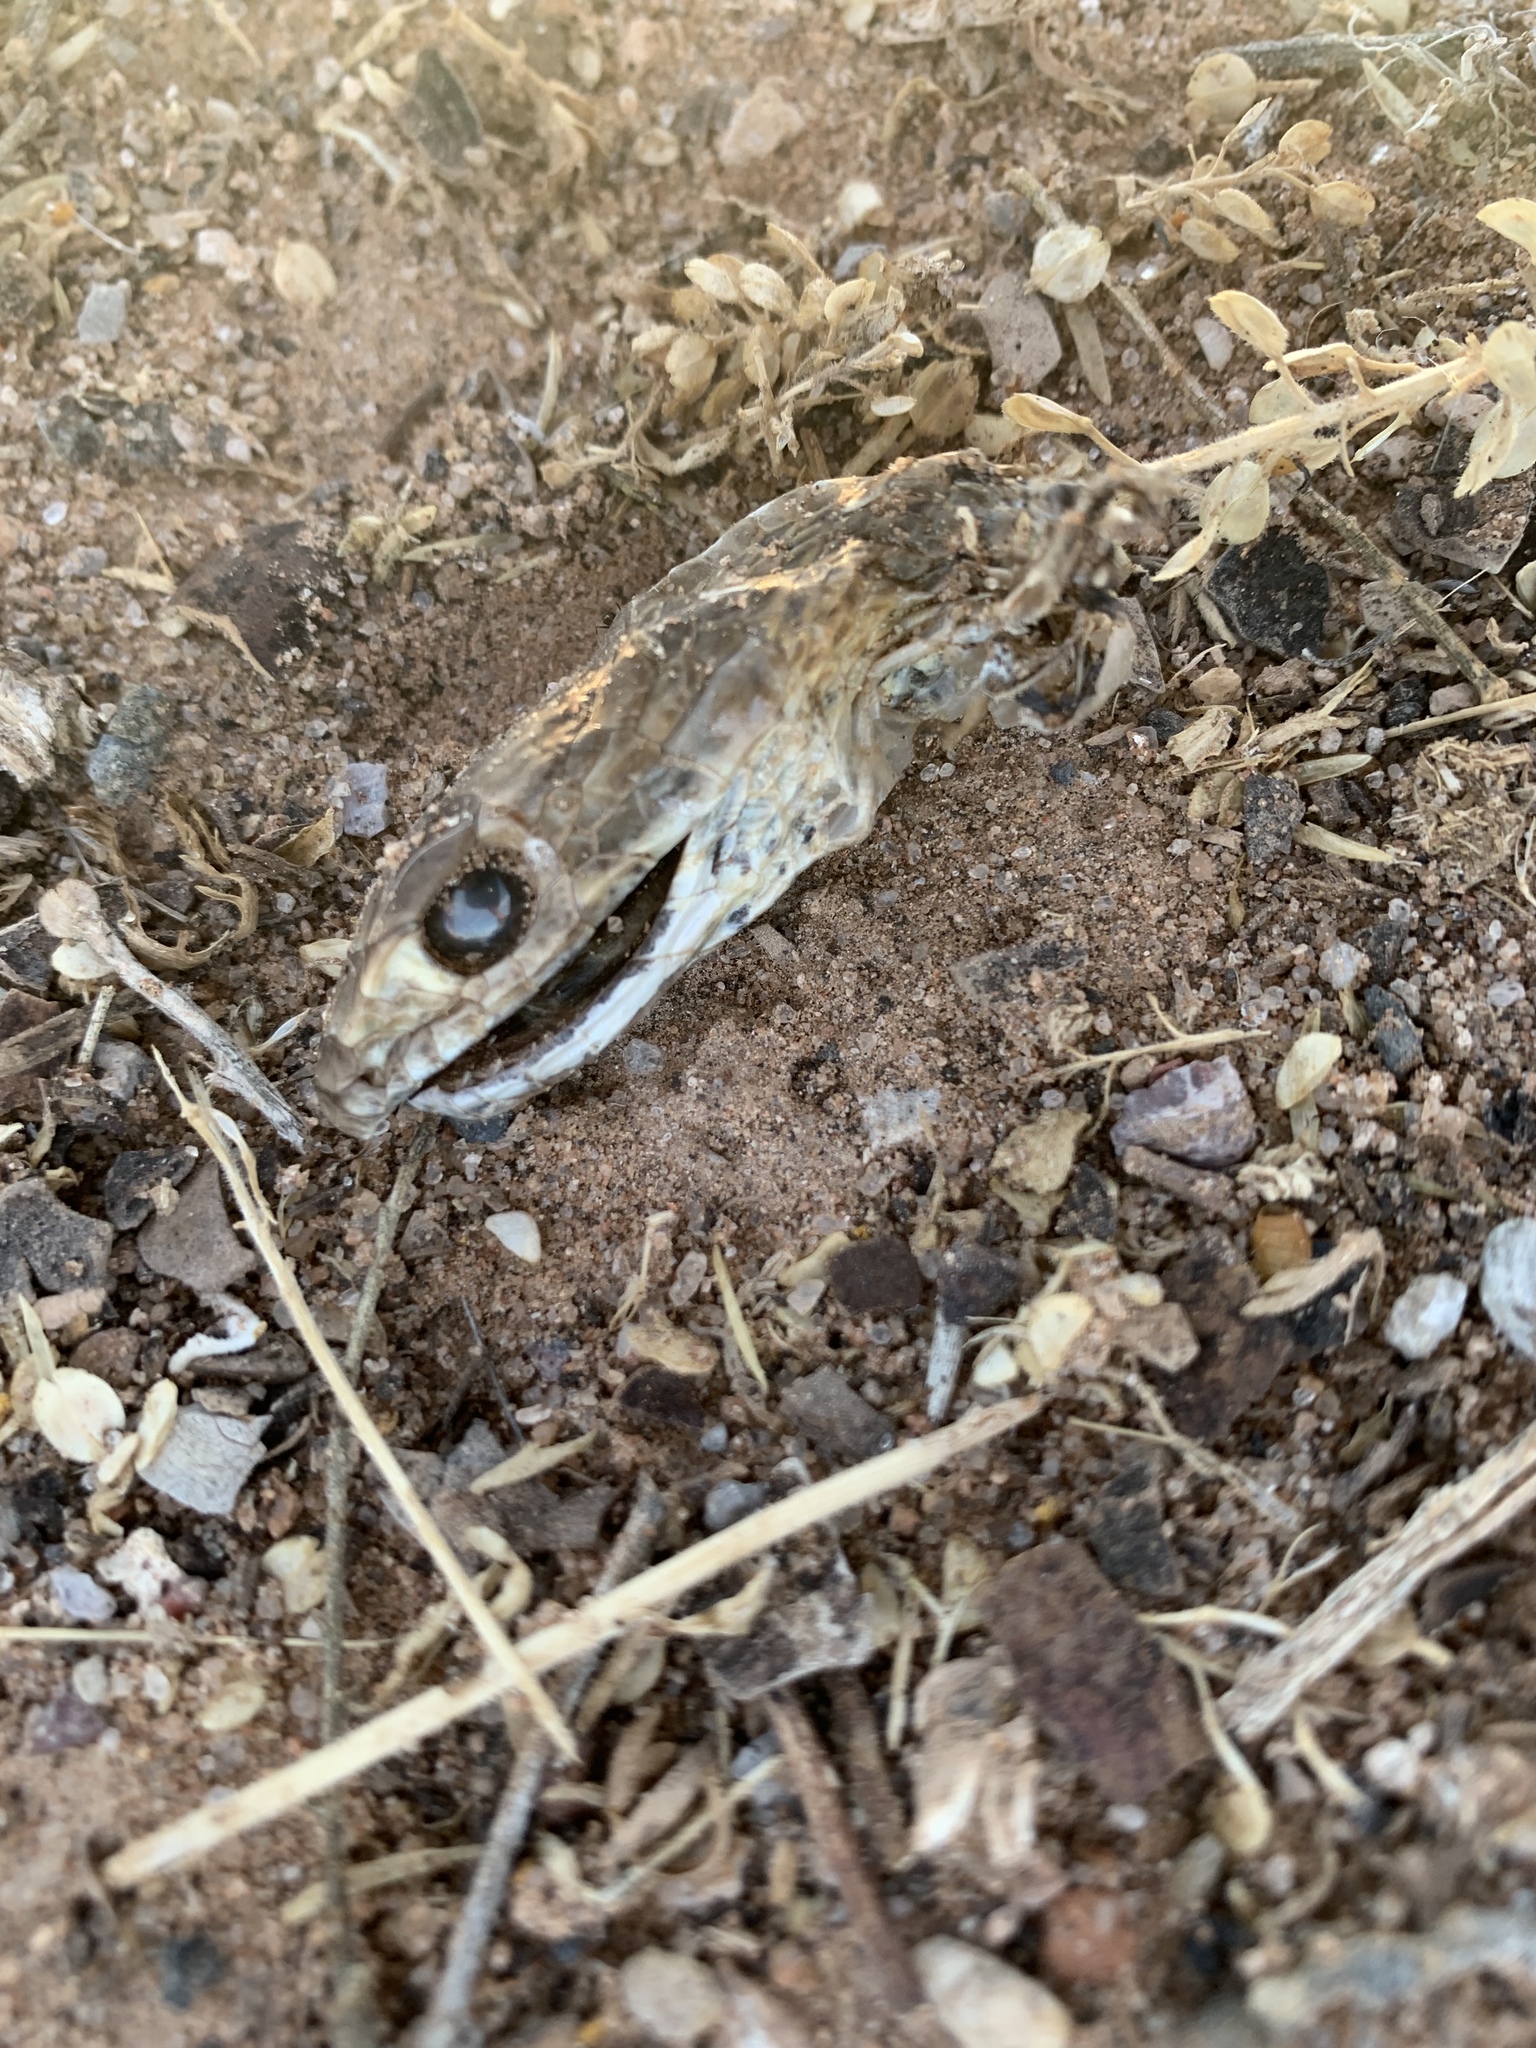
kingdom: Animalia
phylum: Chordata
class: Squamata
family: Colubridae
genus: Masticophis
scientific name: Masticophis flagellum
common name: Coachwhip
